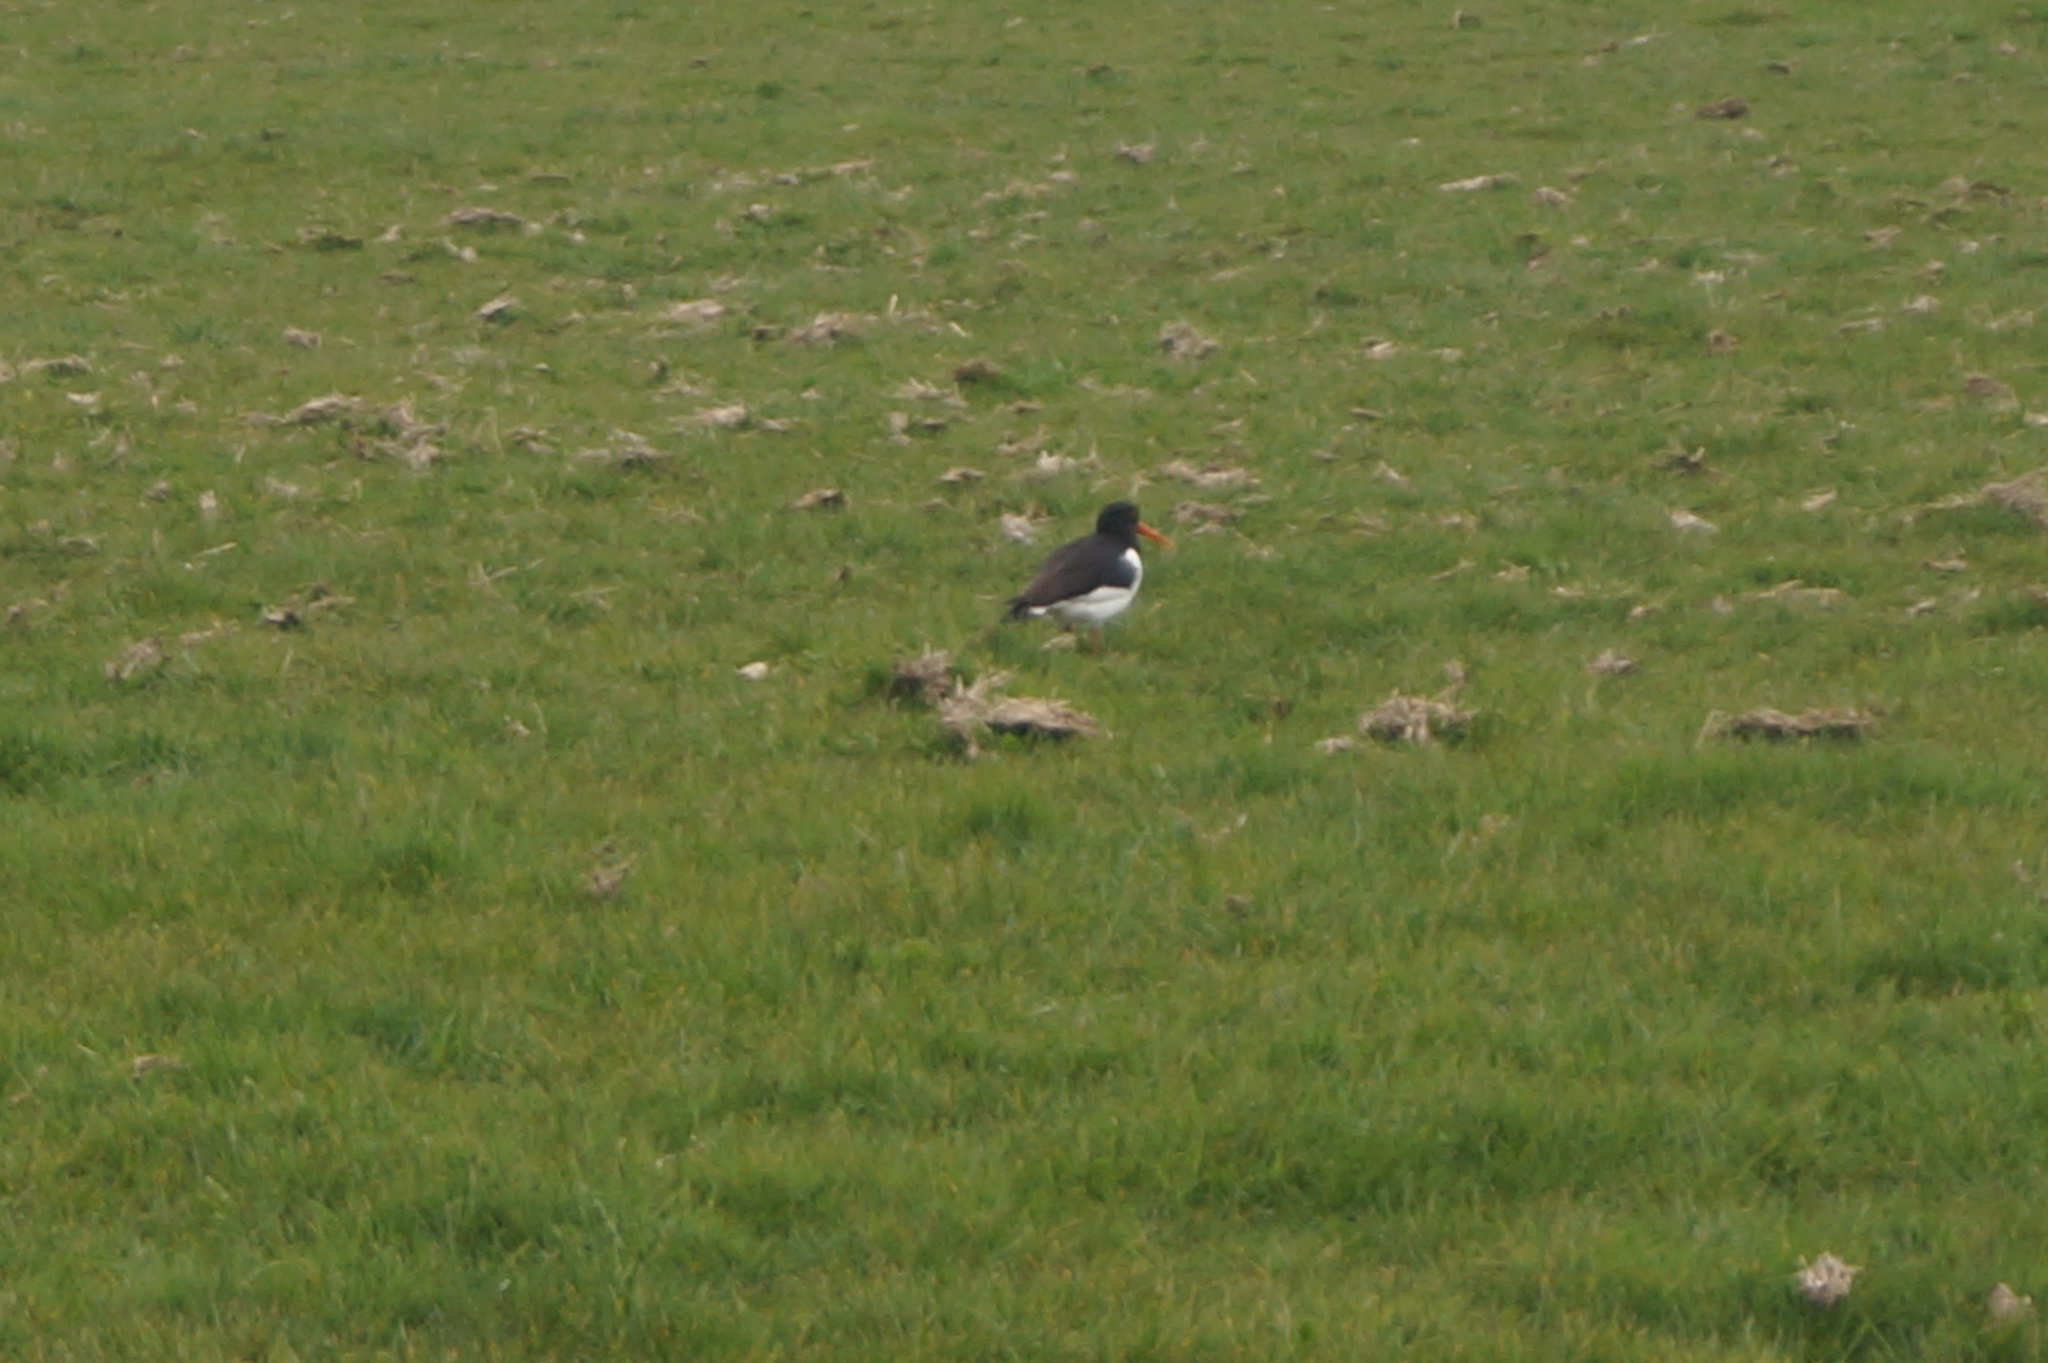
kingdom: Animalia
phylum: Chordata
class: Aves
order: Charadriiformes
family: Haematopodidae
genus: Haematopus
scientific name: Haematopus ostralegus
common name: Eurasian oystercatcher
